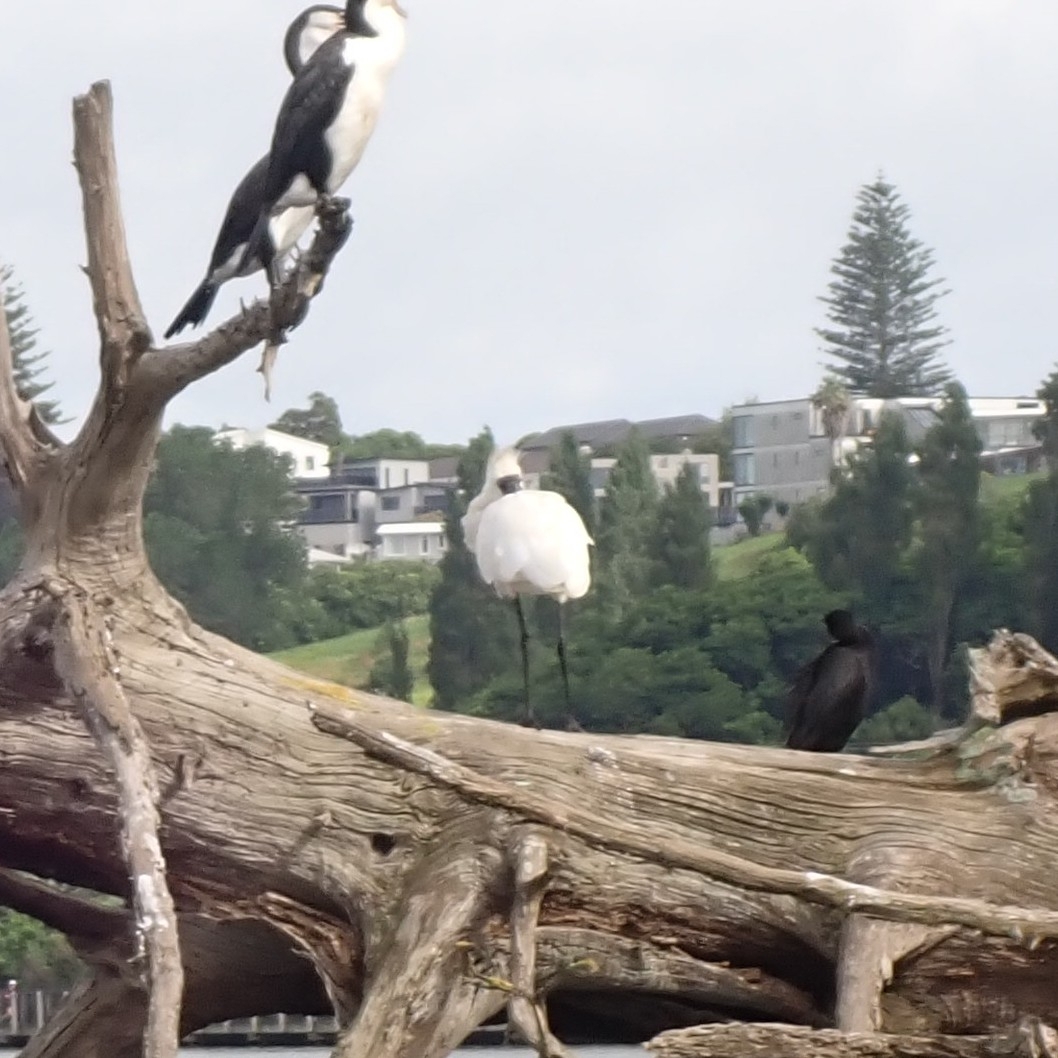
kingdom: Animalia
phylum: Chordata
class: Aves
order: Pelecaniformes
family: Threskiornithidae
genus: Platalea
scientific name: Platalea regia
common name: Royal spoonbill
